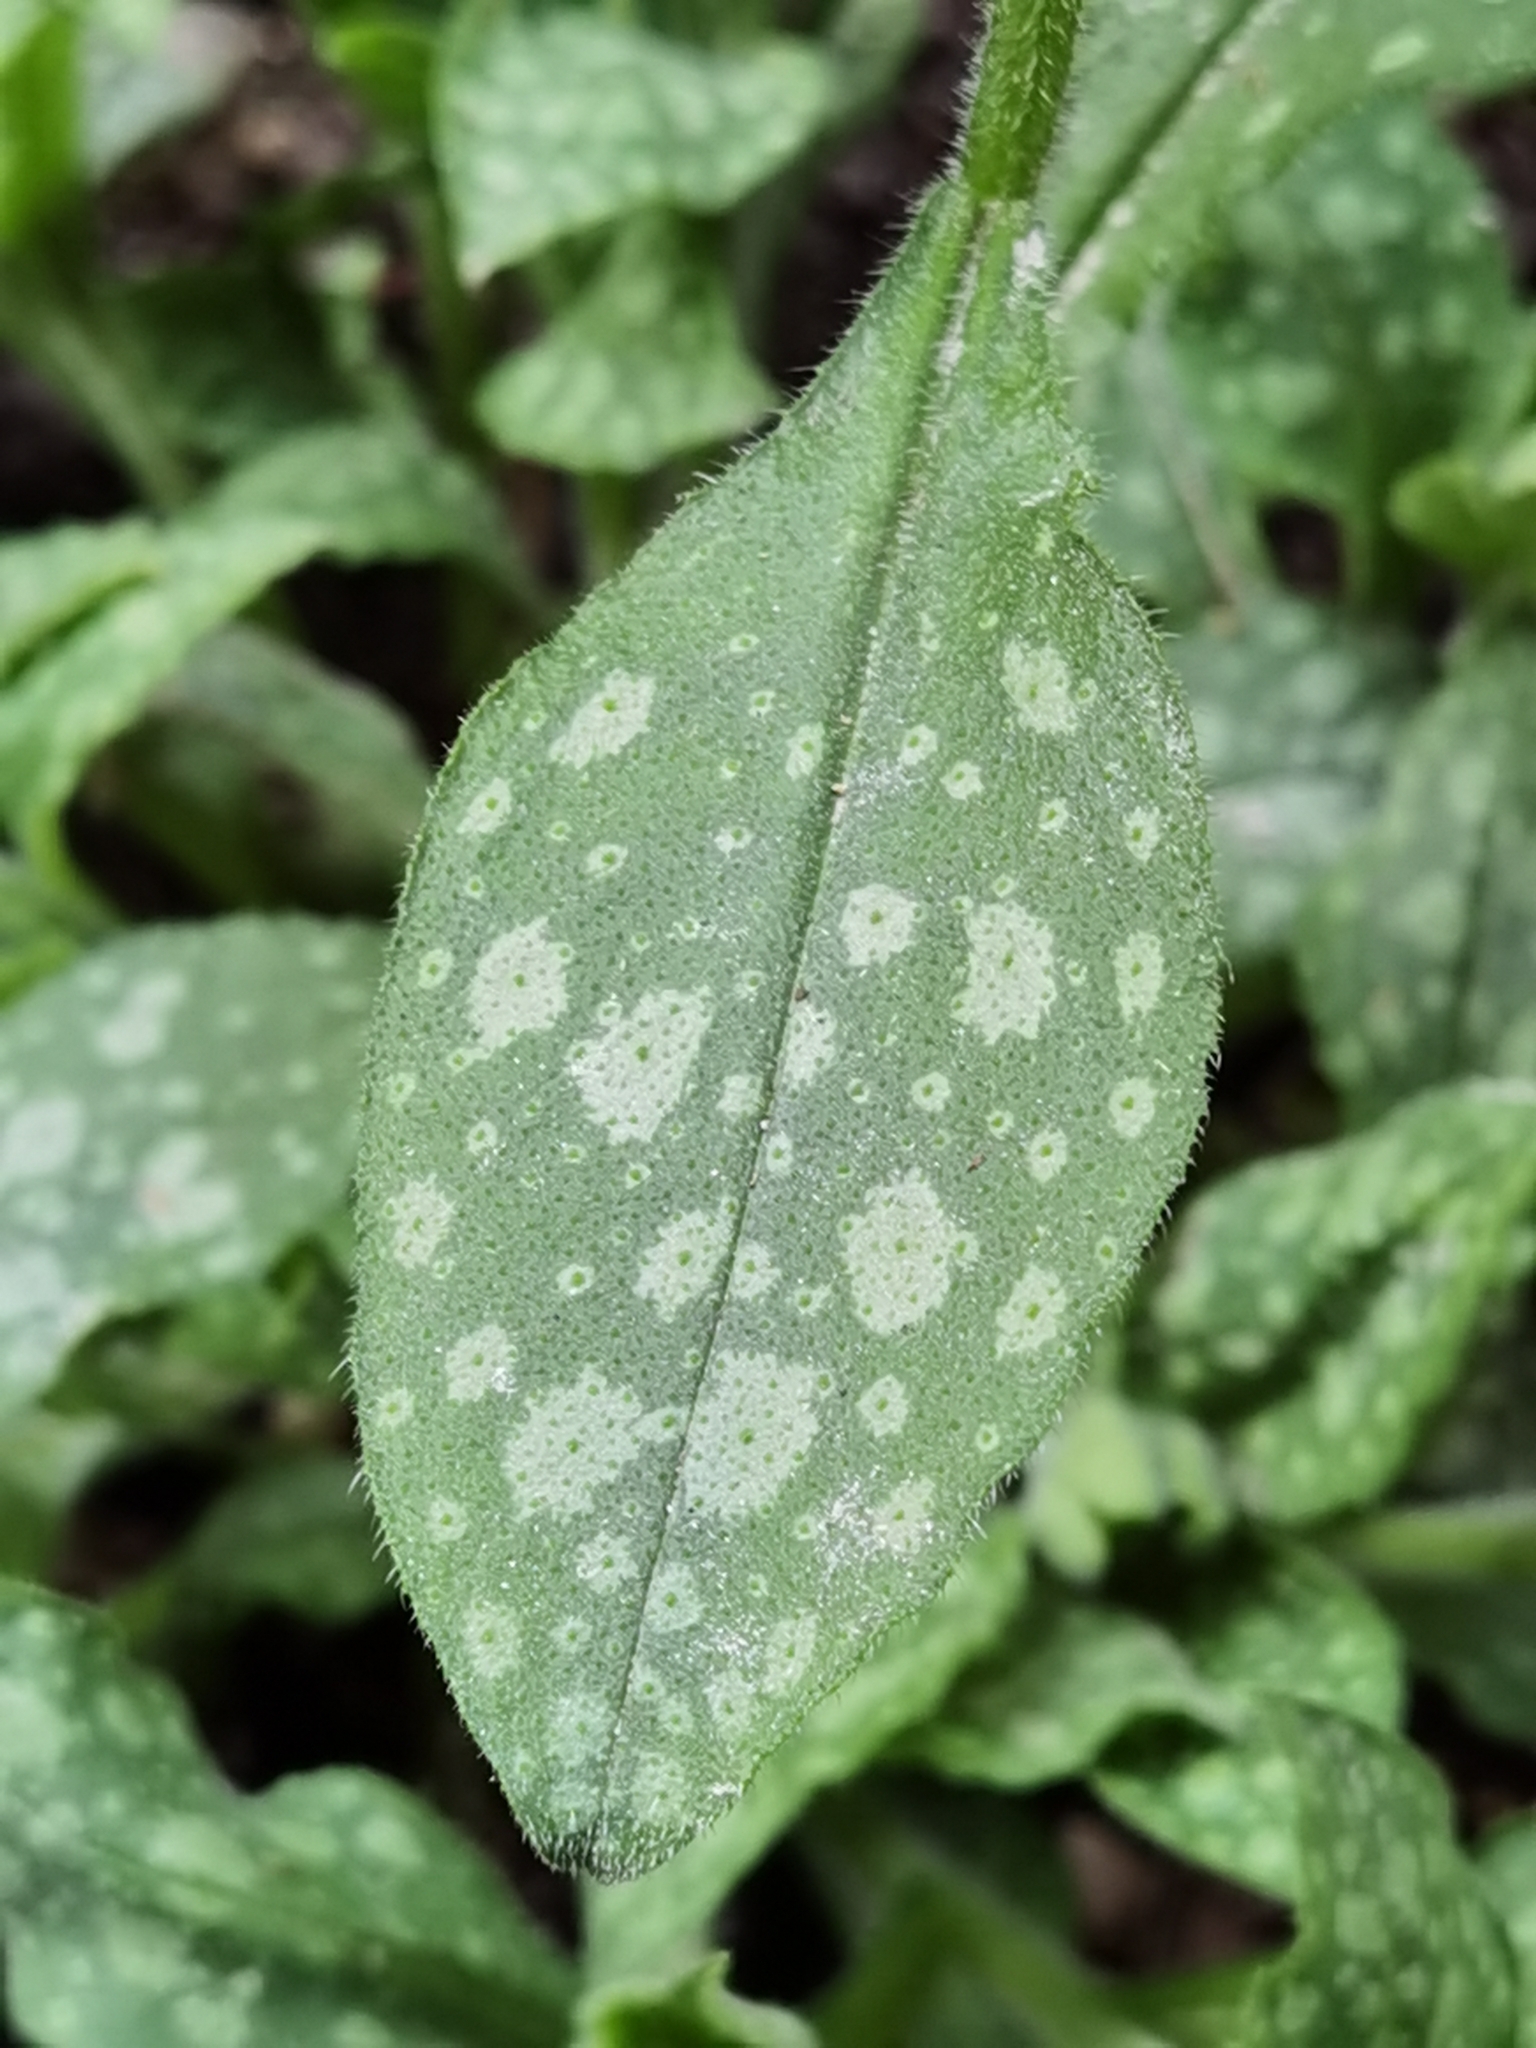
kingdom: Plantae
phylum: Tracheophyta
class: Magnoliopsida
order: Boraginales
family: Boraginaceae
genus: Pulmonaria
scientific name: Pulmonaria officinalis
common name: Lungwort
